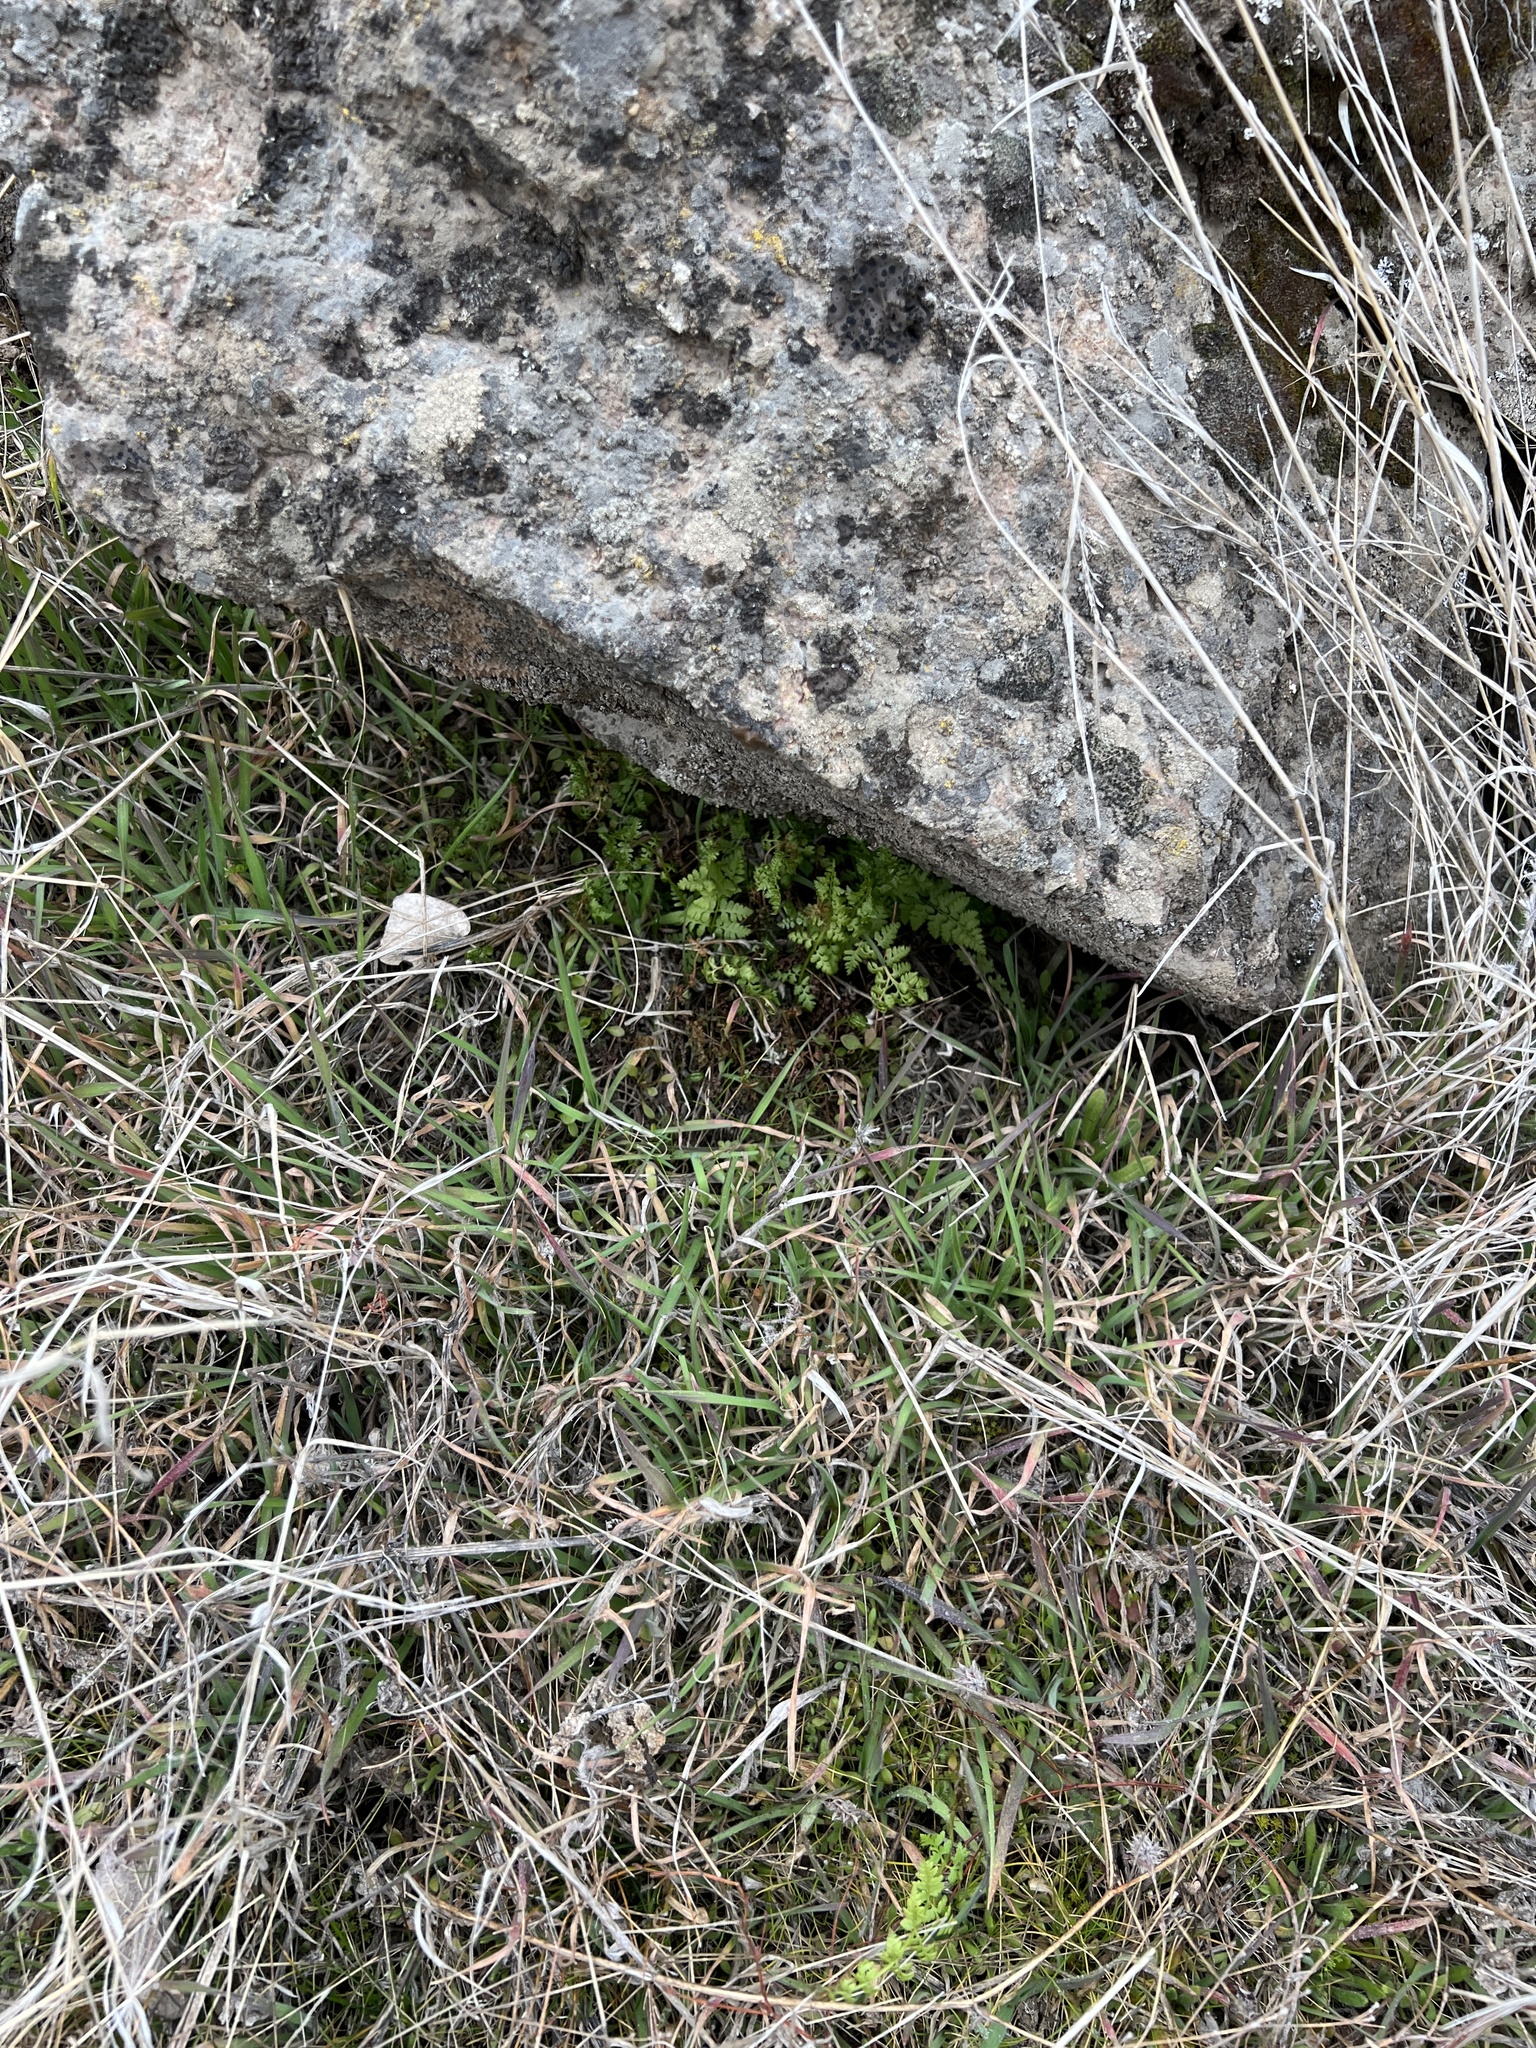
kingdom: Plantae
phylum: Tracheophyta
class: Polypodiopsida
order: Polypodiales
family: Cystopteridaceae
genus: Cystopteris
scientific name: Cystopteris fragilis
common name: Brittle bladder fern
